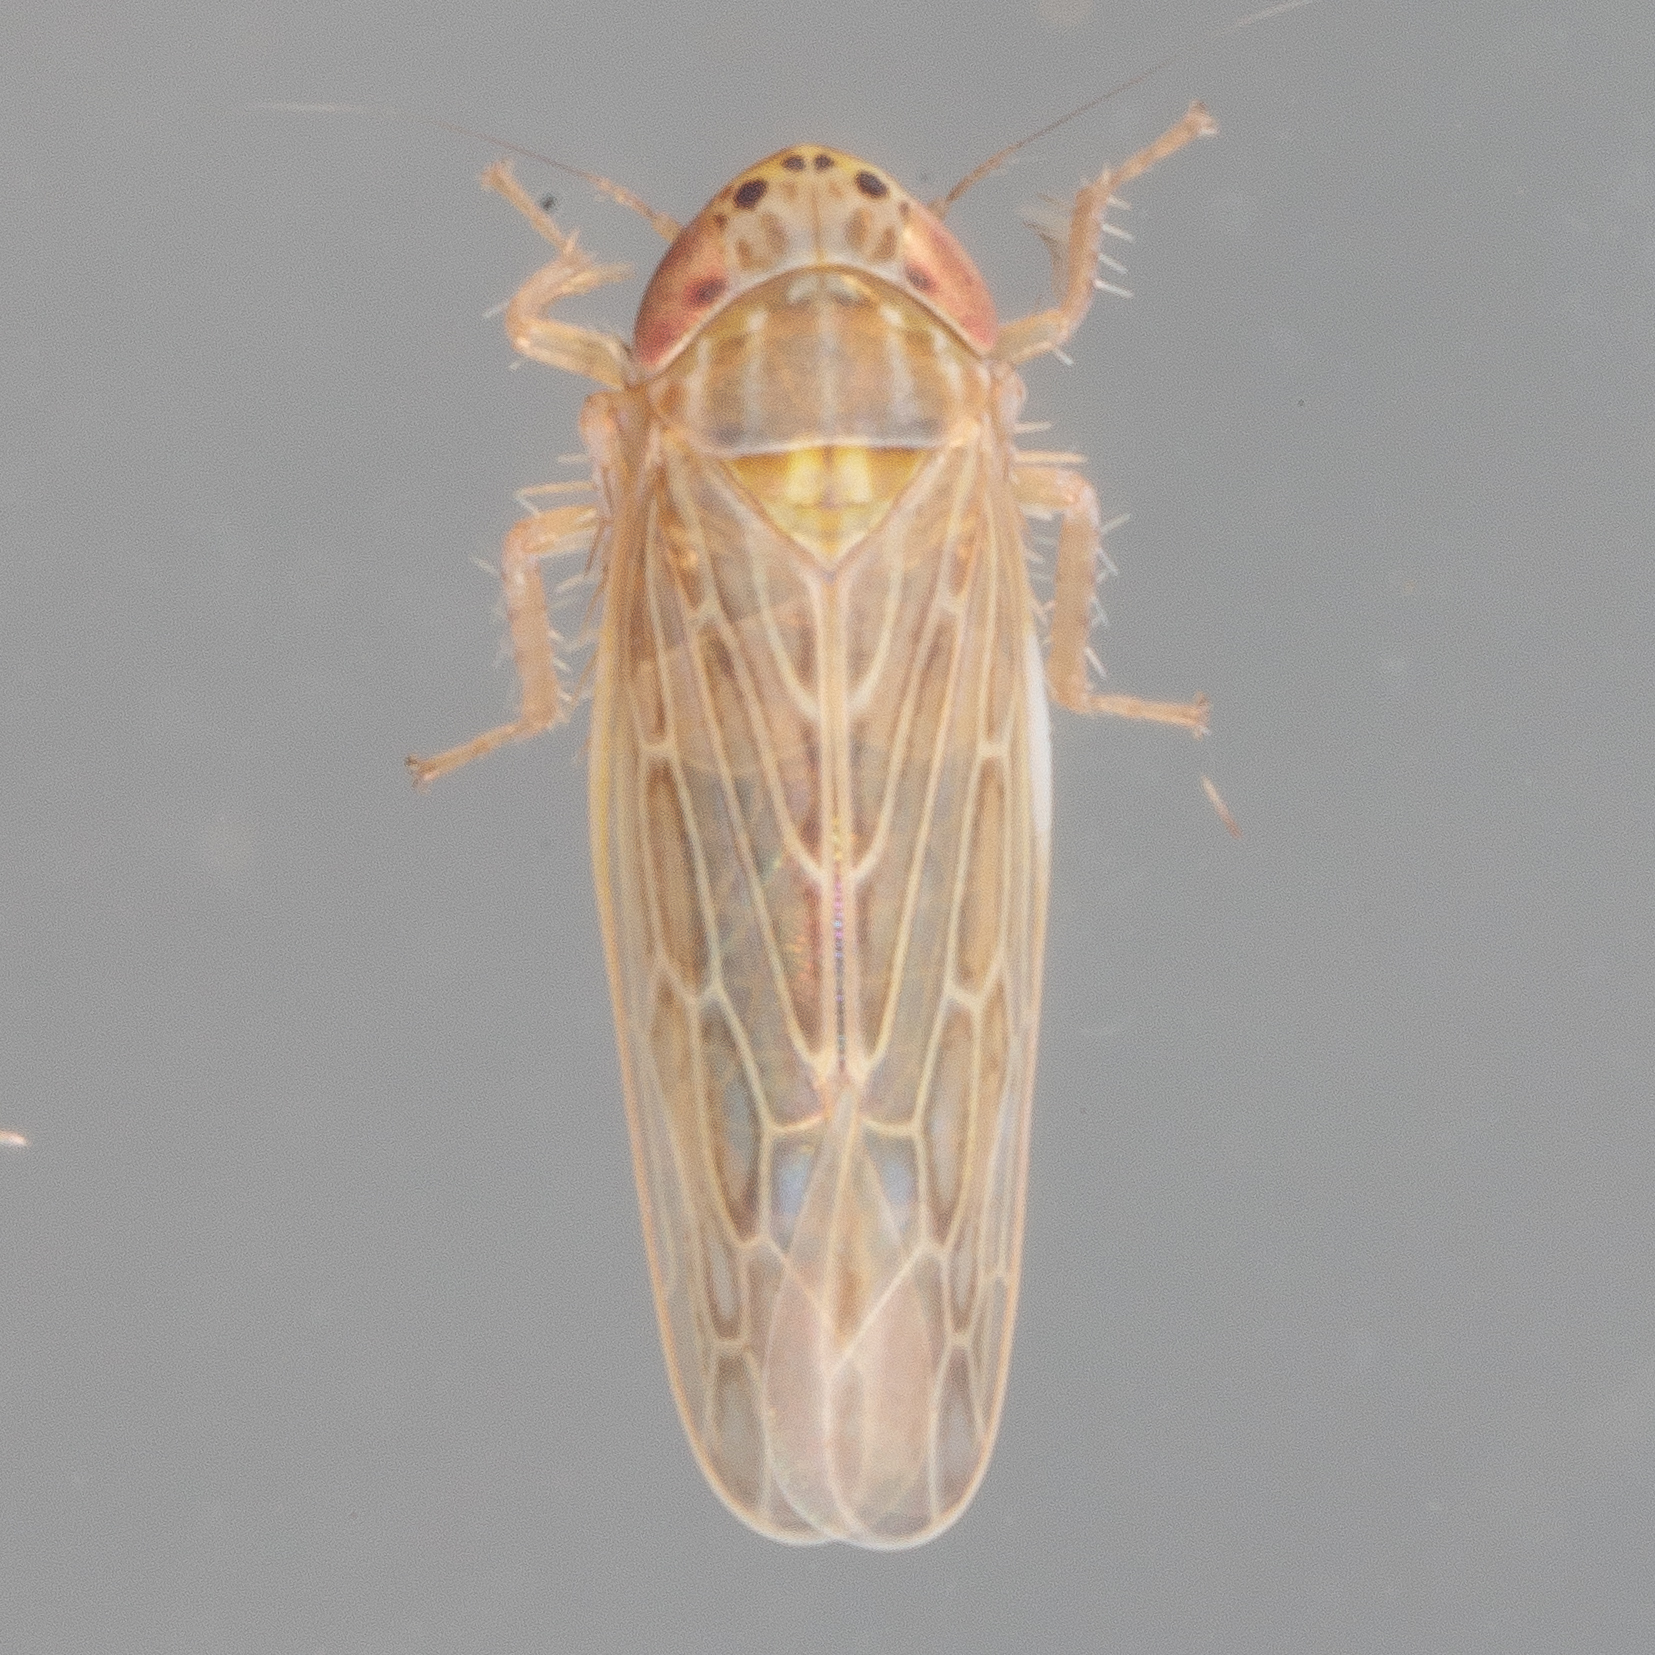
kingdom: Animalia
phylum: Arthropoda
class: Insecta
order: Hemiptera
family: Cicadellidae
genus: Graminella
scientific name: Graminella sonora
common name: Lesser lawn leafhopper
